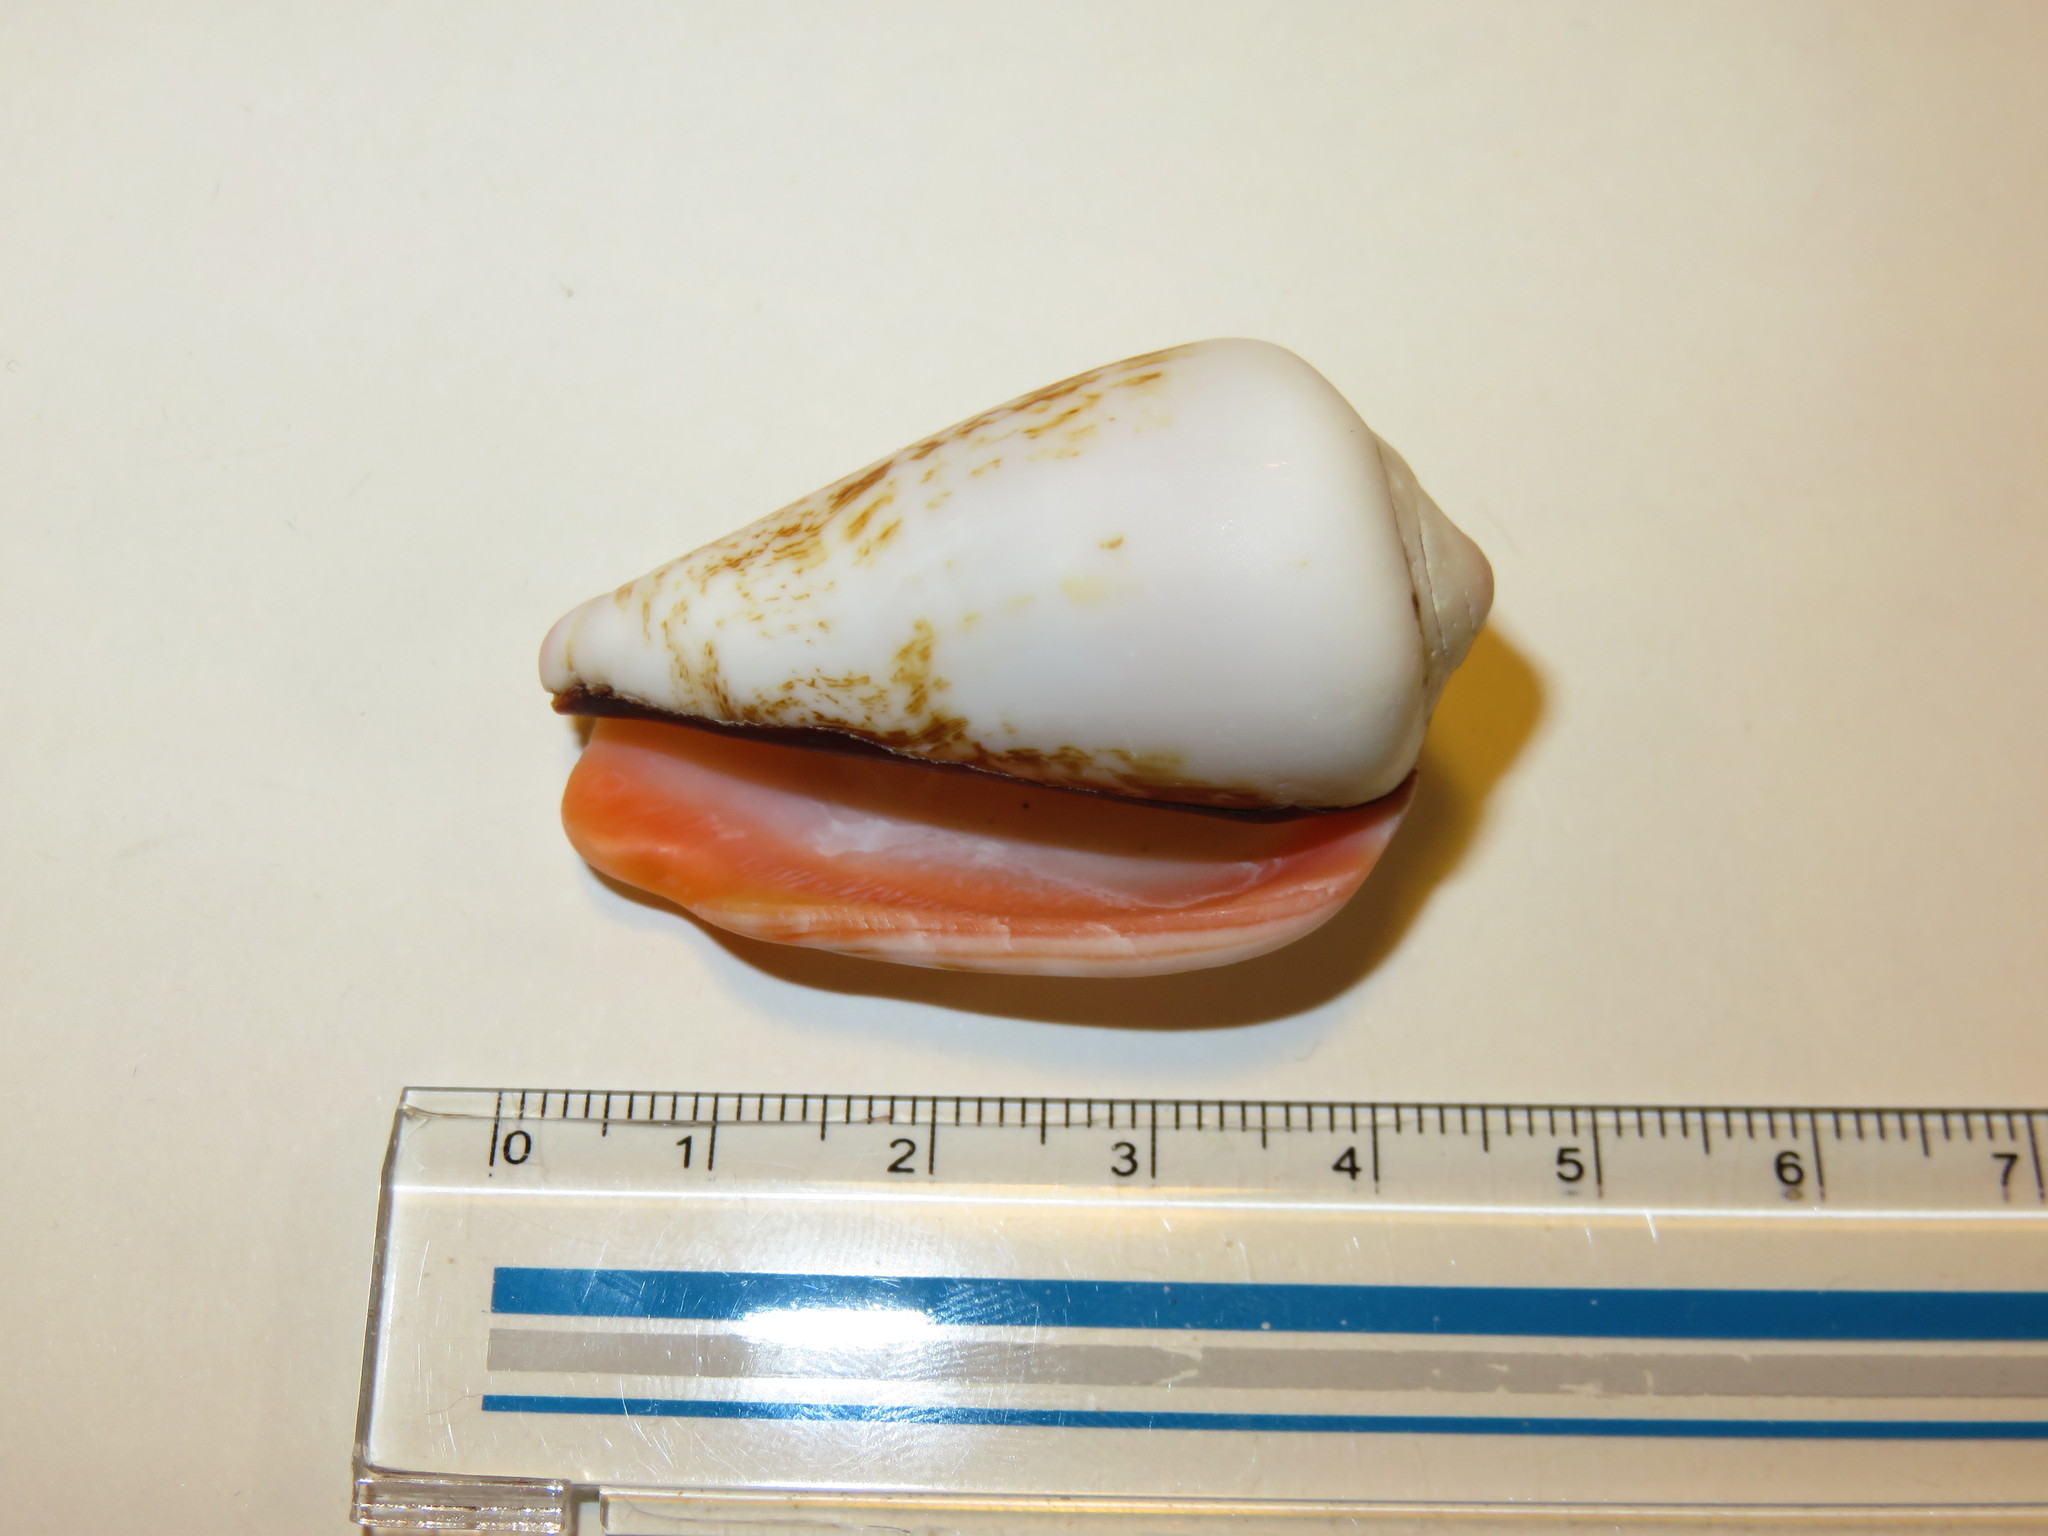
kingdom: Animalia
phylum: Mollusca
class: Gastropoda
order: Littorinimorpha
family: Strombidae
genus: Conomurex
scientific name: Conomurex luhuanus
